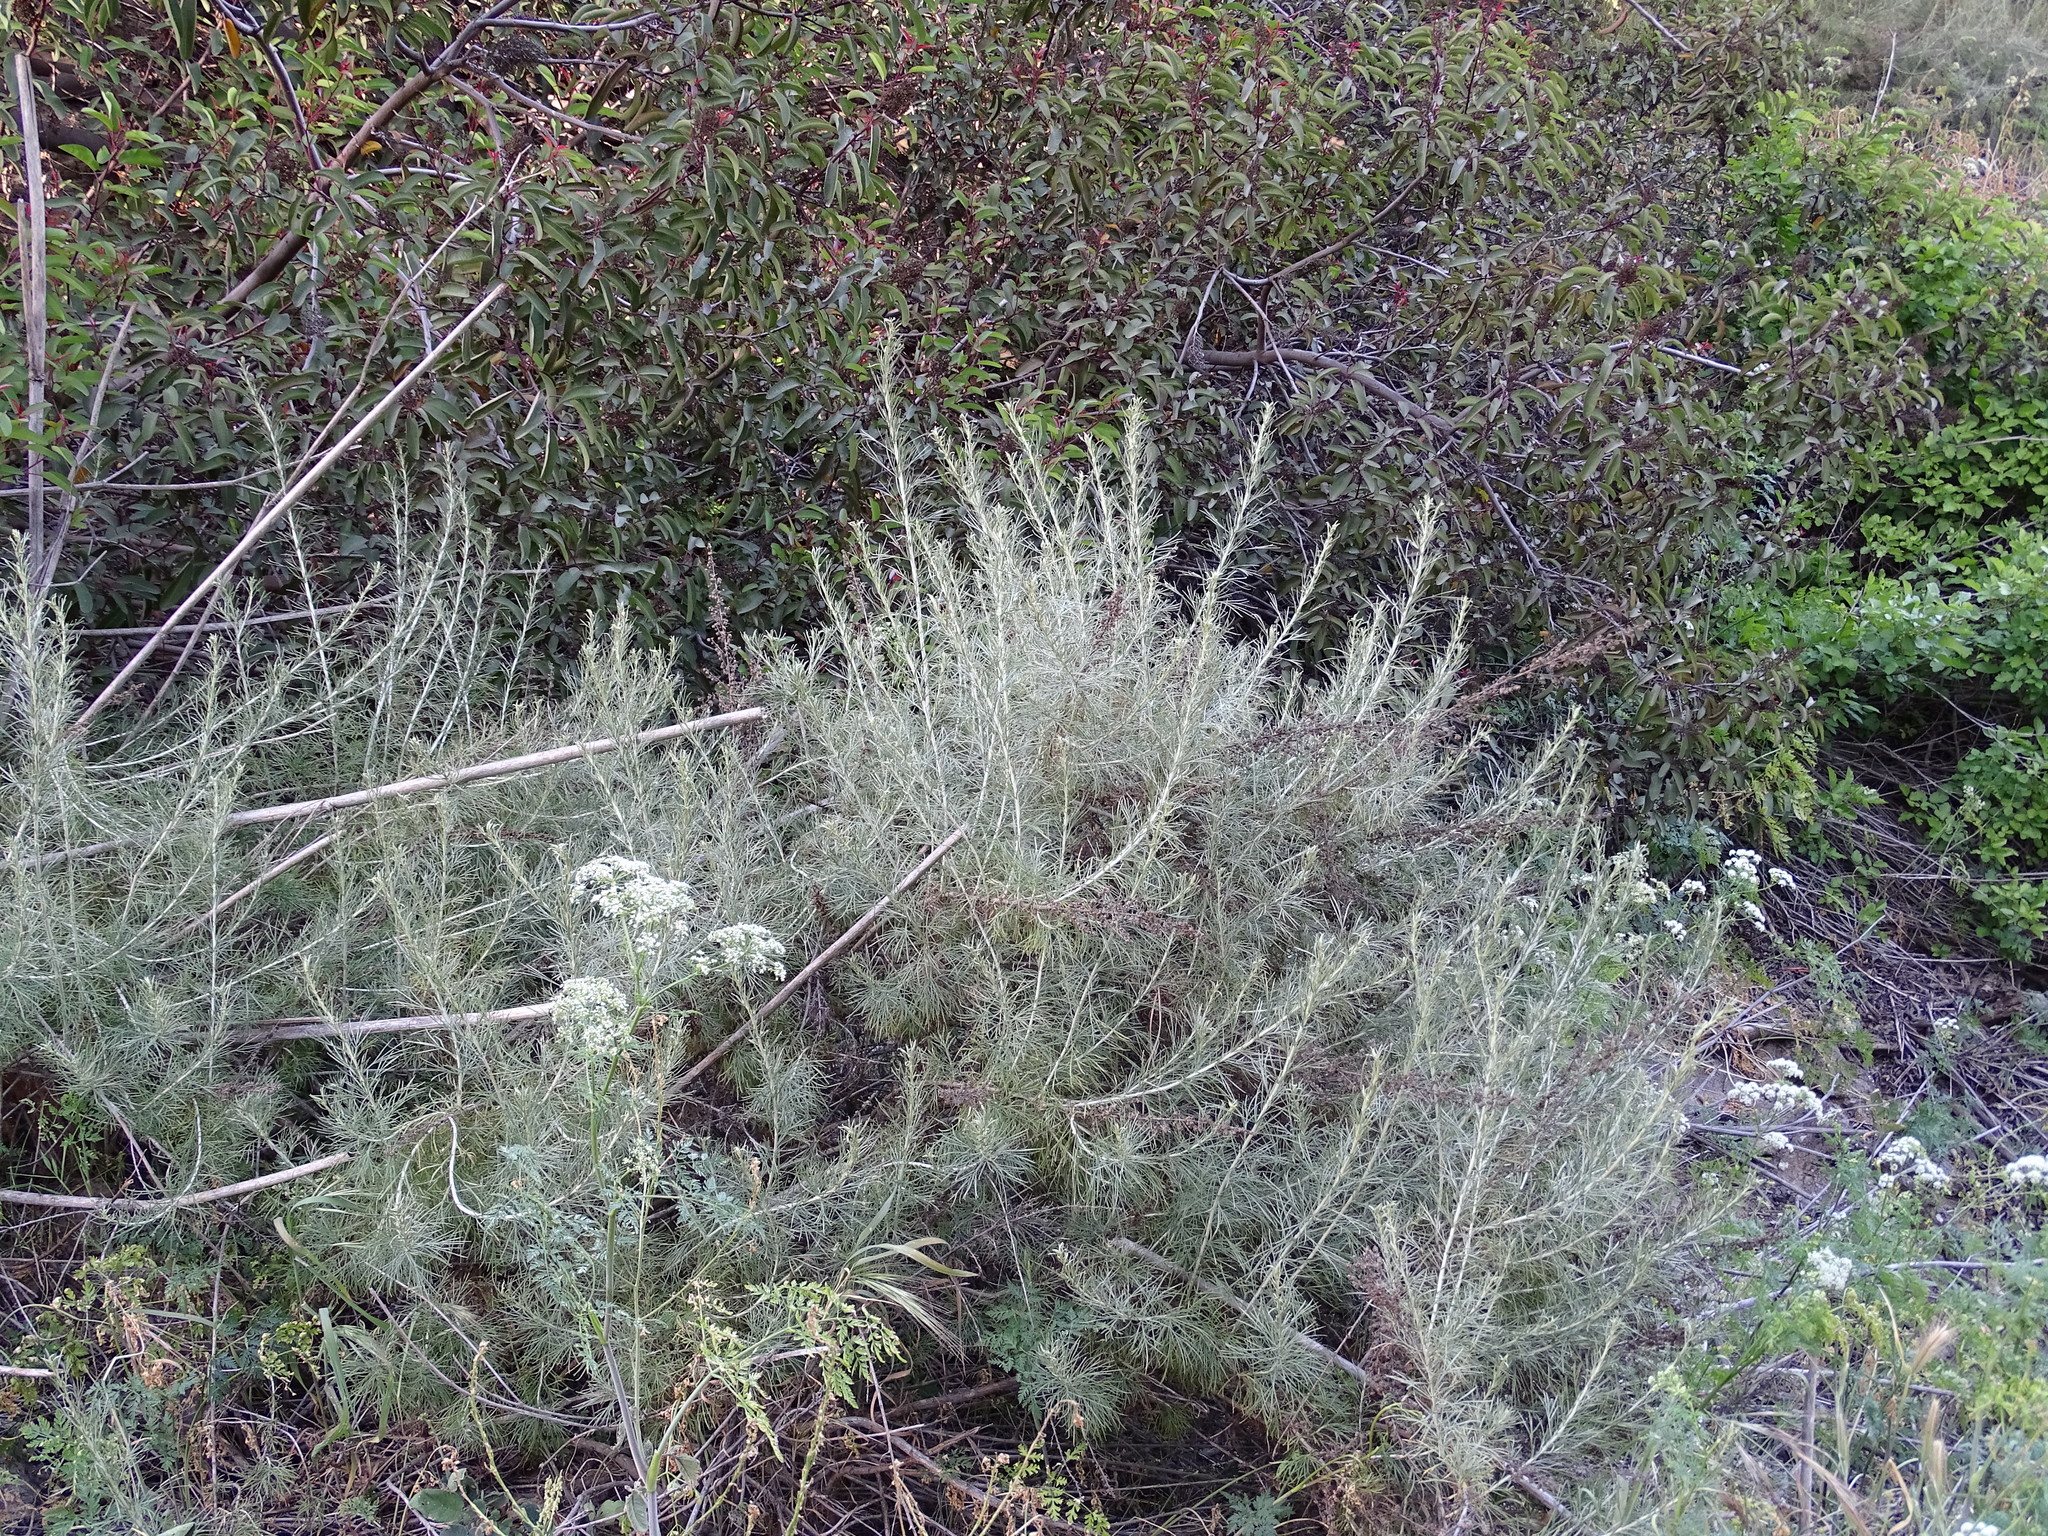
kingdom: Plantae
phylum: Tracheophyta
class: Magnoliopsida
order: Asterales
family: Asteraceae
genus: Artemisia
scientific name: Artemisia californica
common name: California sagebrush
